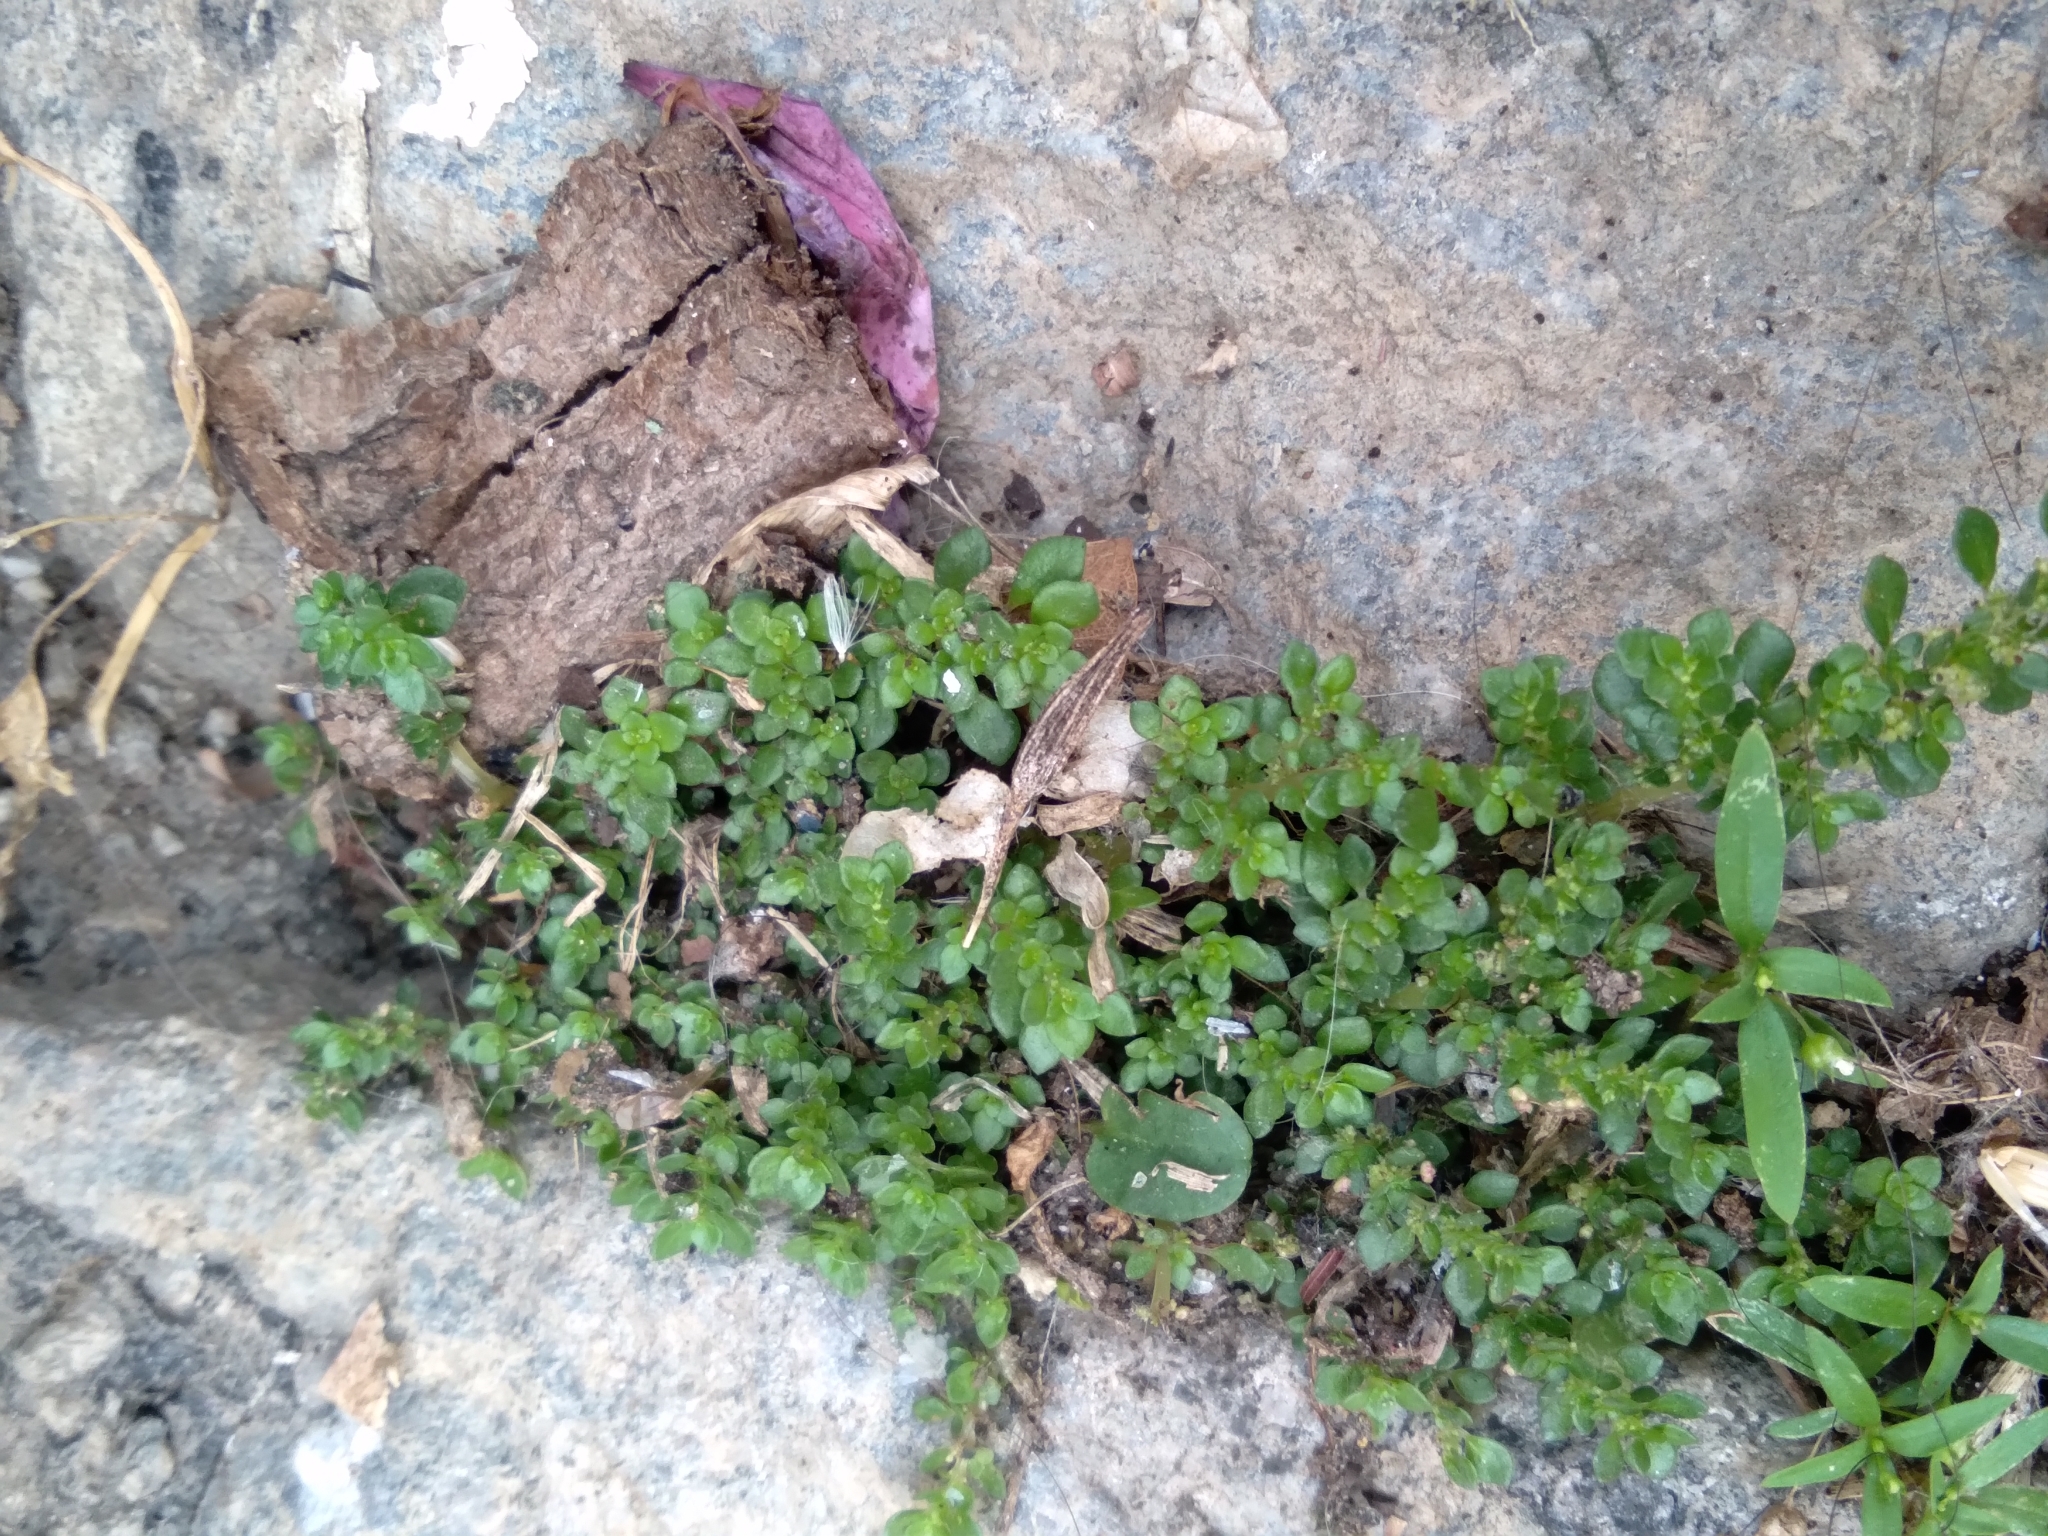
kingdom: Plantae
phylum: Tracheophyta
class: Magnoliopsida
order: Rosales
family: Urticaceae
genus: Pilea
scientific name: Pilea microphylla
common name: Artillery-plant
